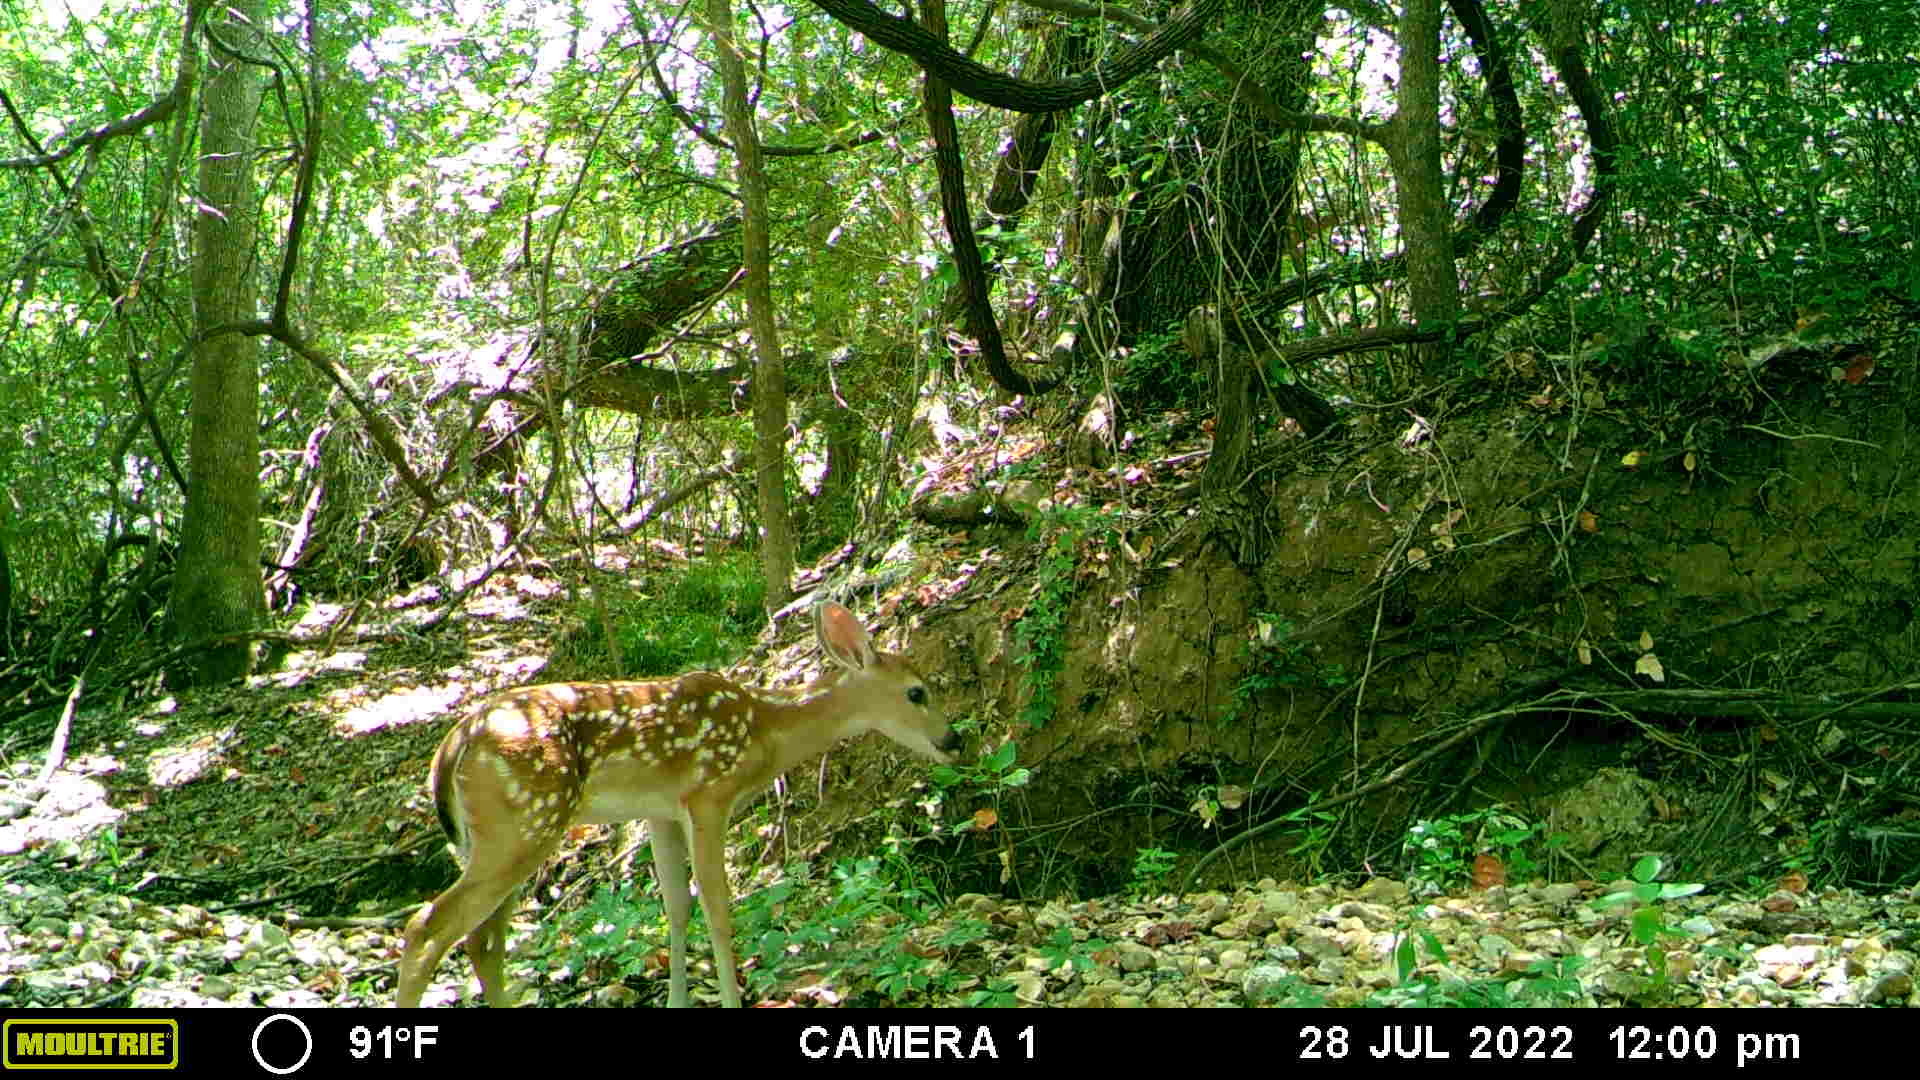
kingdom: Animalia
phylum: Chordata
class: Mammalia
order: Artiodactyla
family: Cervidae
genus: Odocoileus
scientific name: Odocoileus virginianus
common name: White-tailed deer
